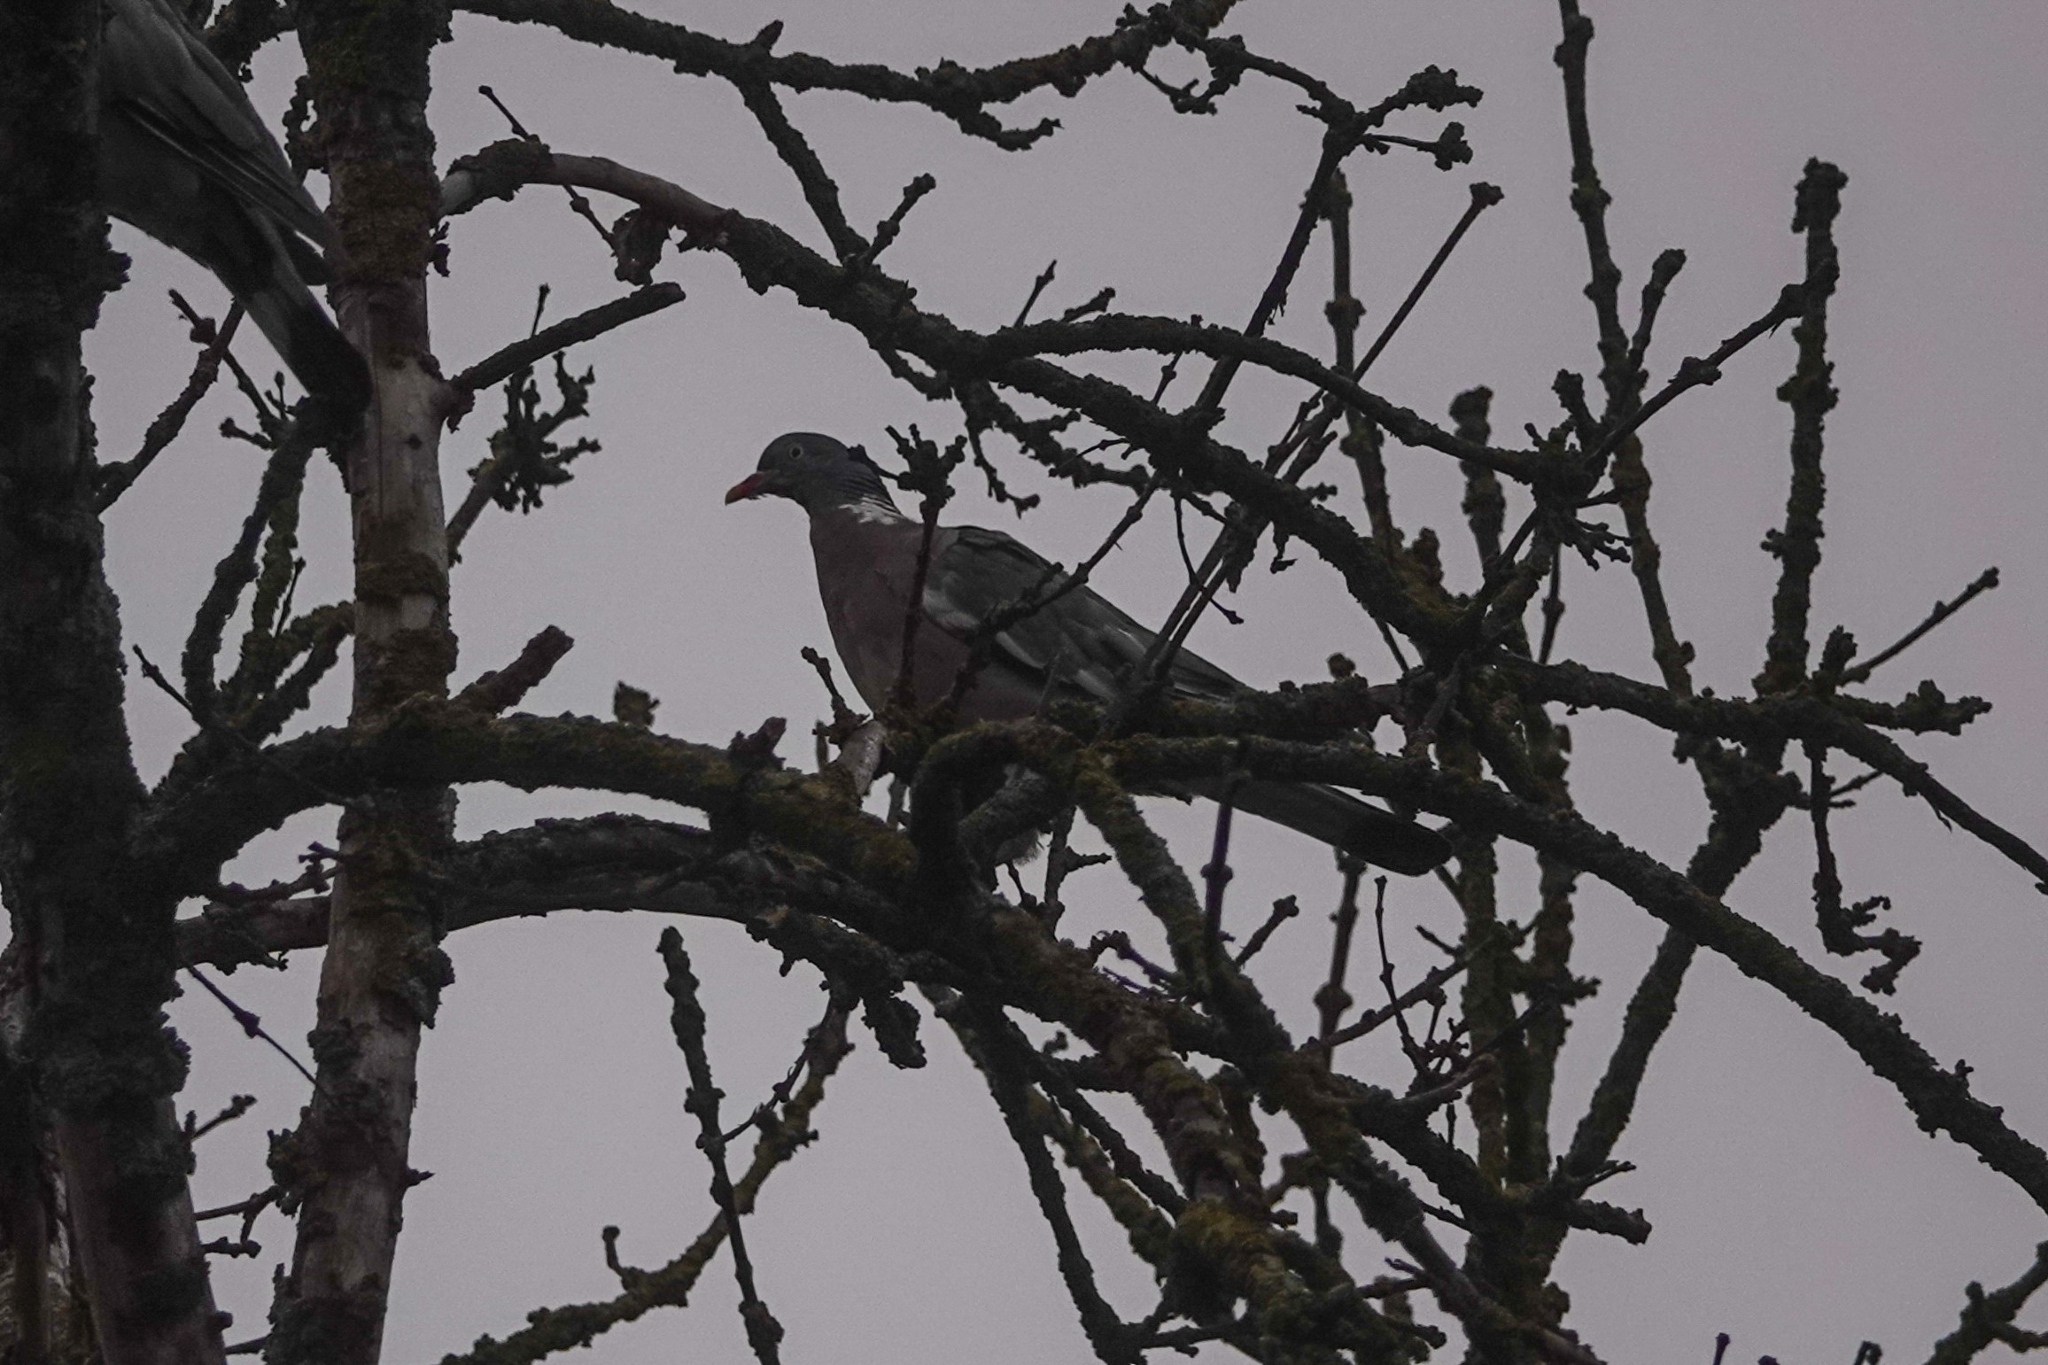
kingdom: Animalia
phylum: Chordata
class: Aves
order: Columbiformes
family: Columbidae
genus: Columba
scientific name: Columba palumbus
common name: Common wood pigeon
